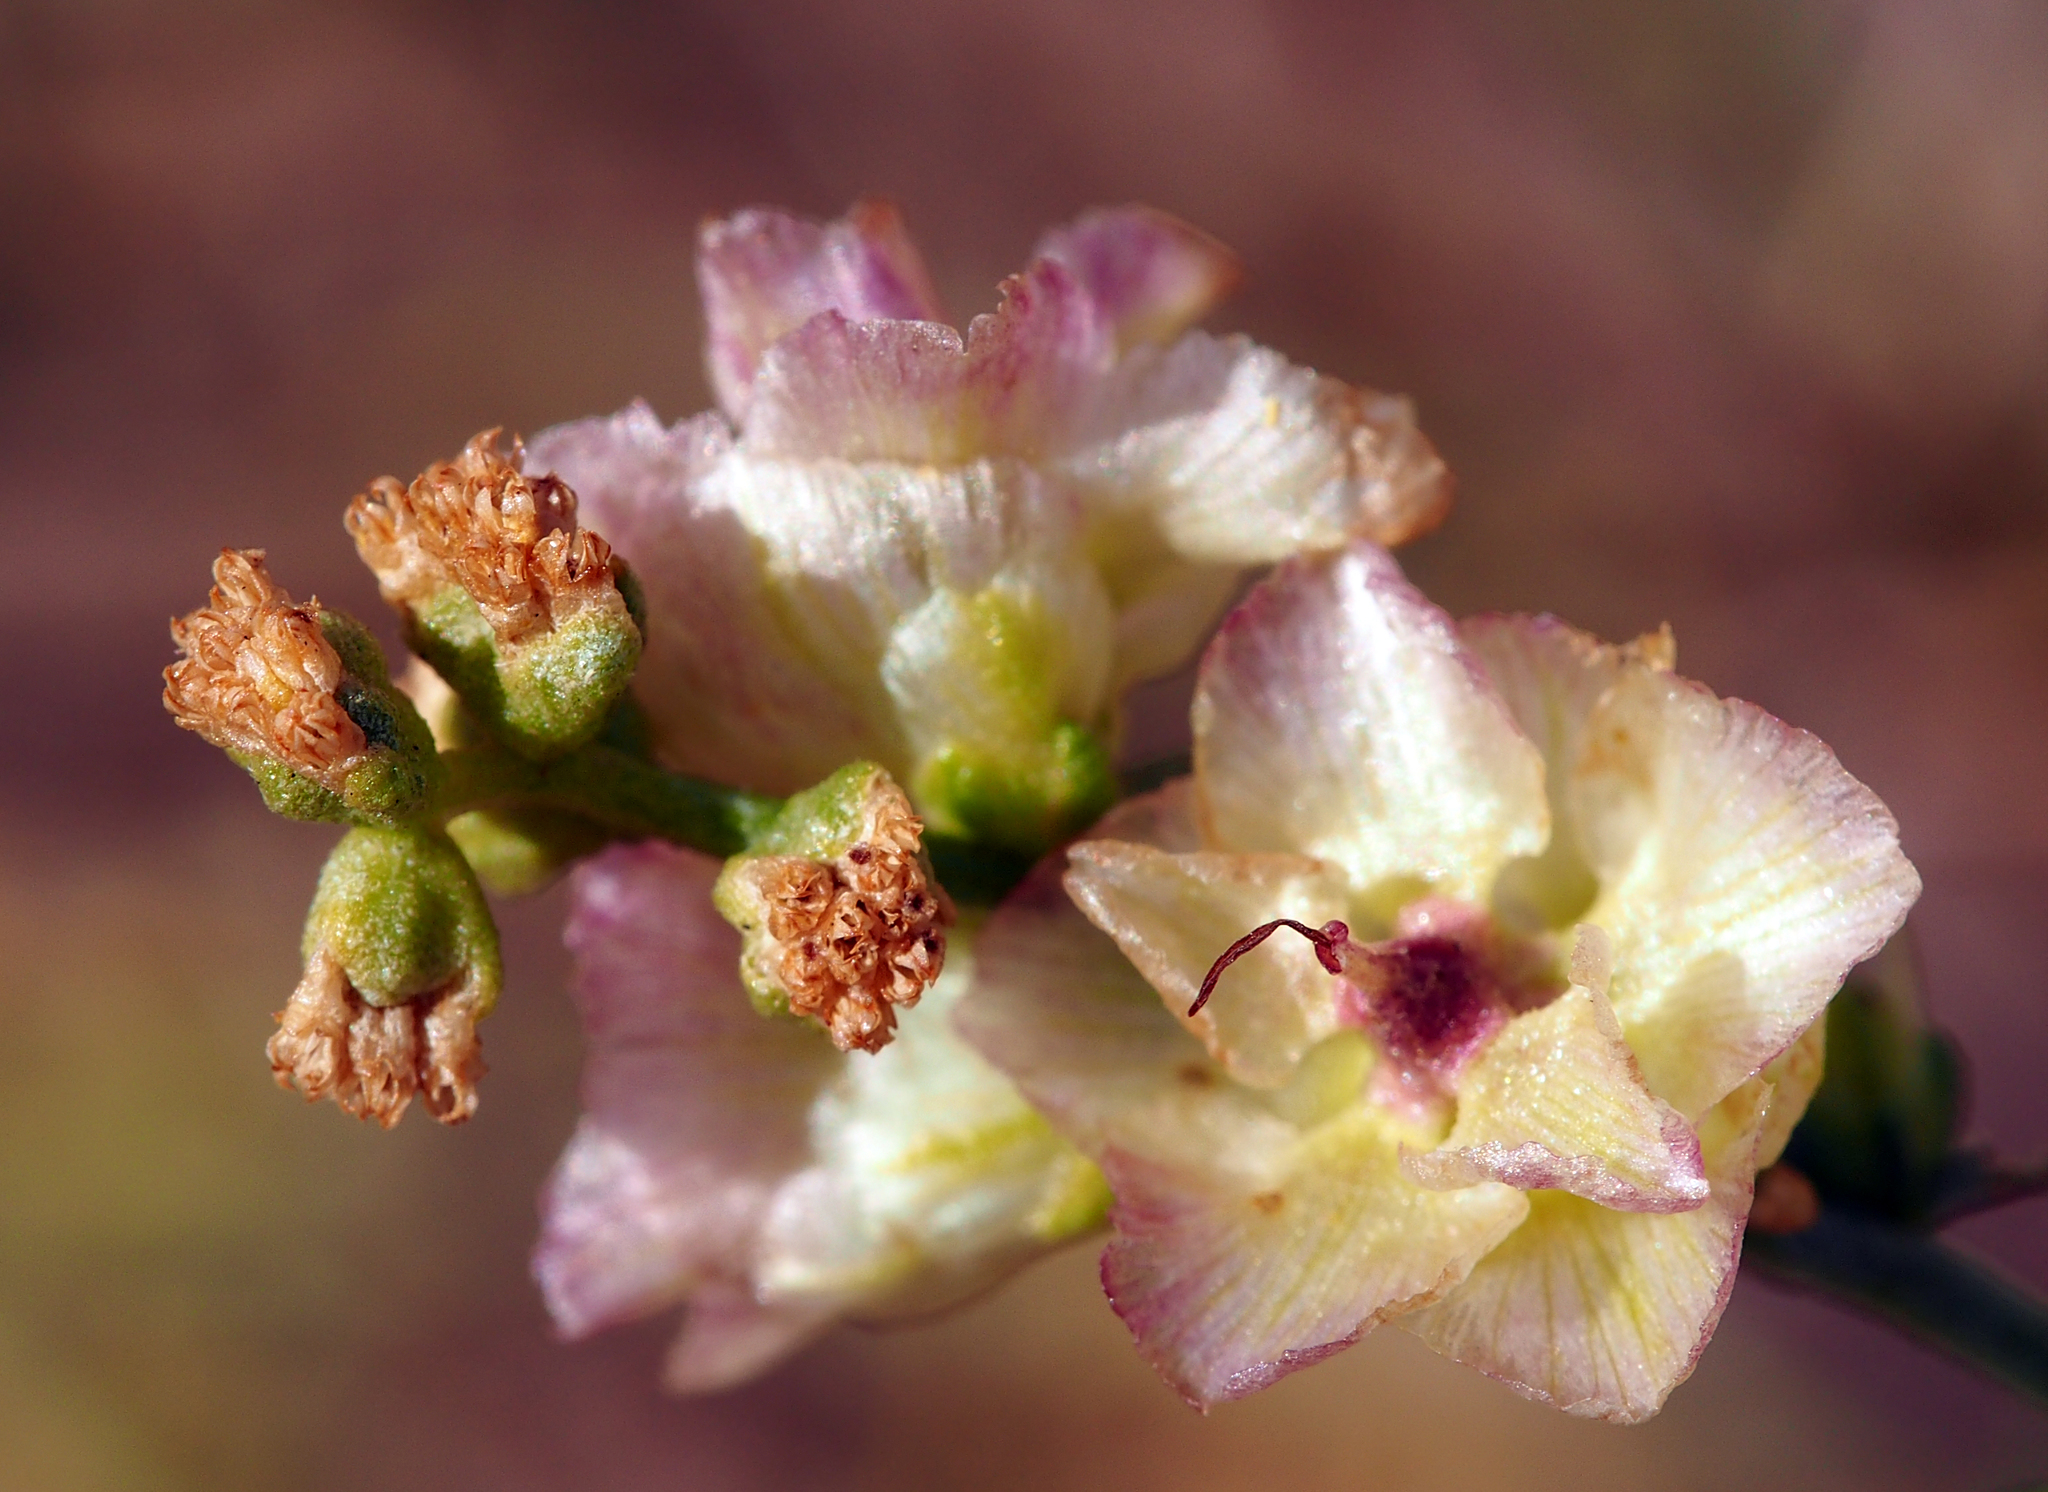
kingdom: Plantae
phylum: Tracheophyta
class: Magnoliopsida
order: Asterales
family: Asteraceae
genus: Ambrosia
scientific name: Ambrosia salsola
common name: Burrobrush
